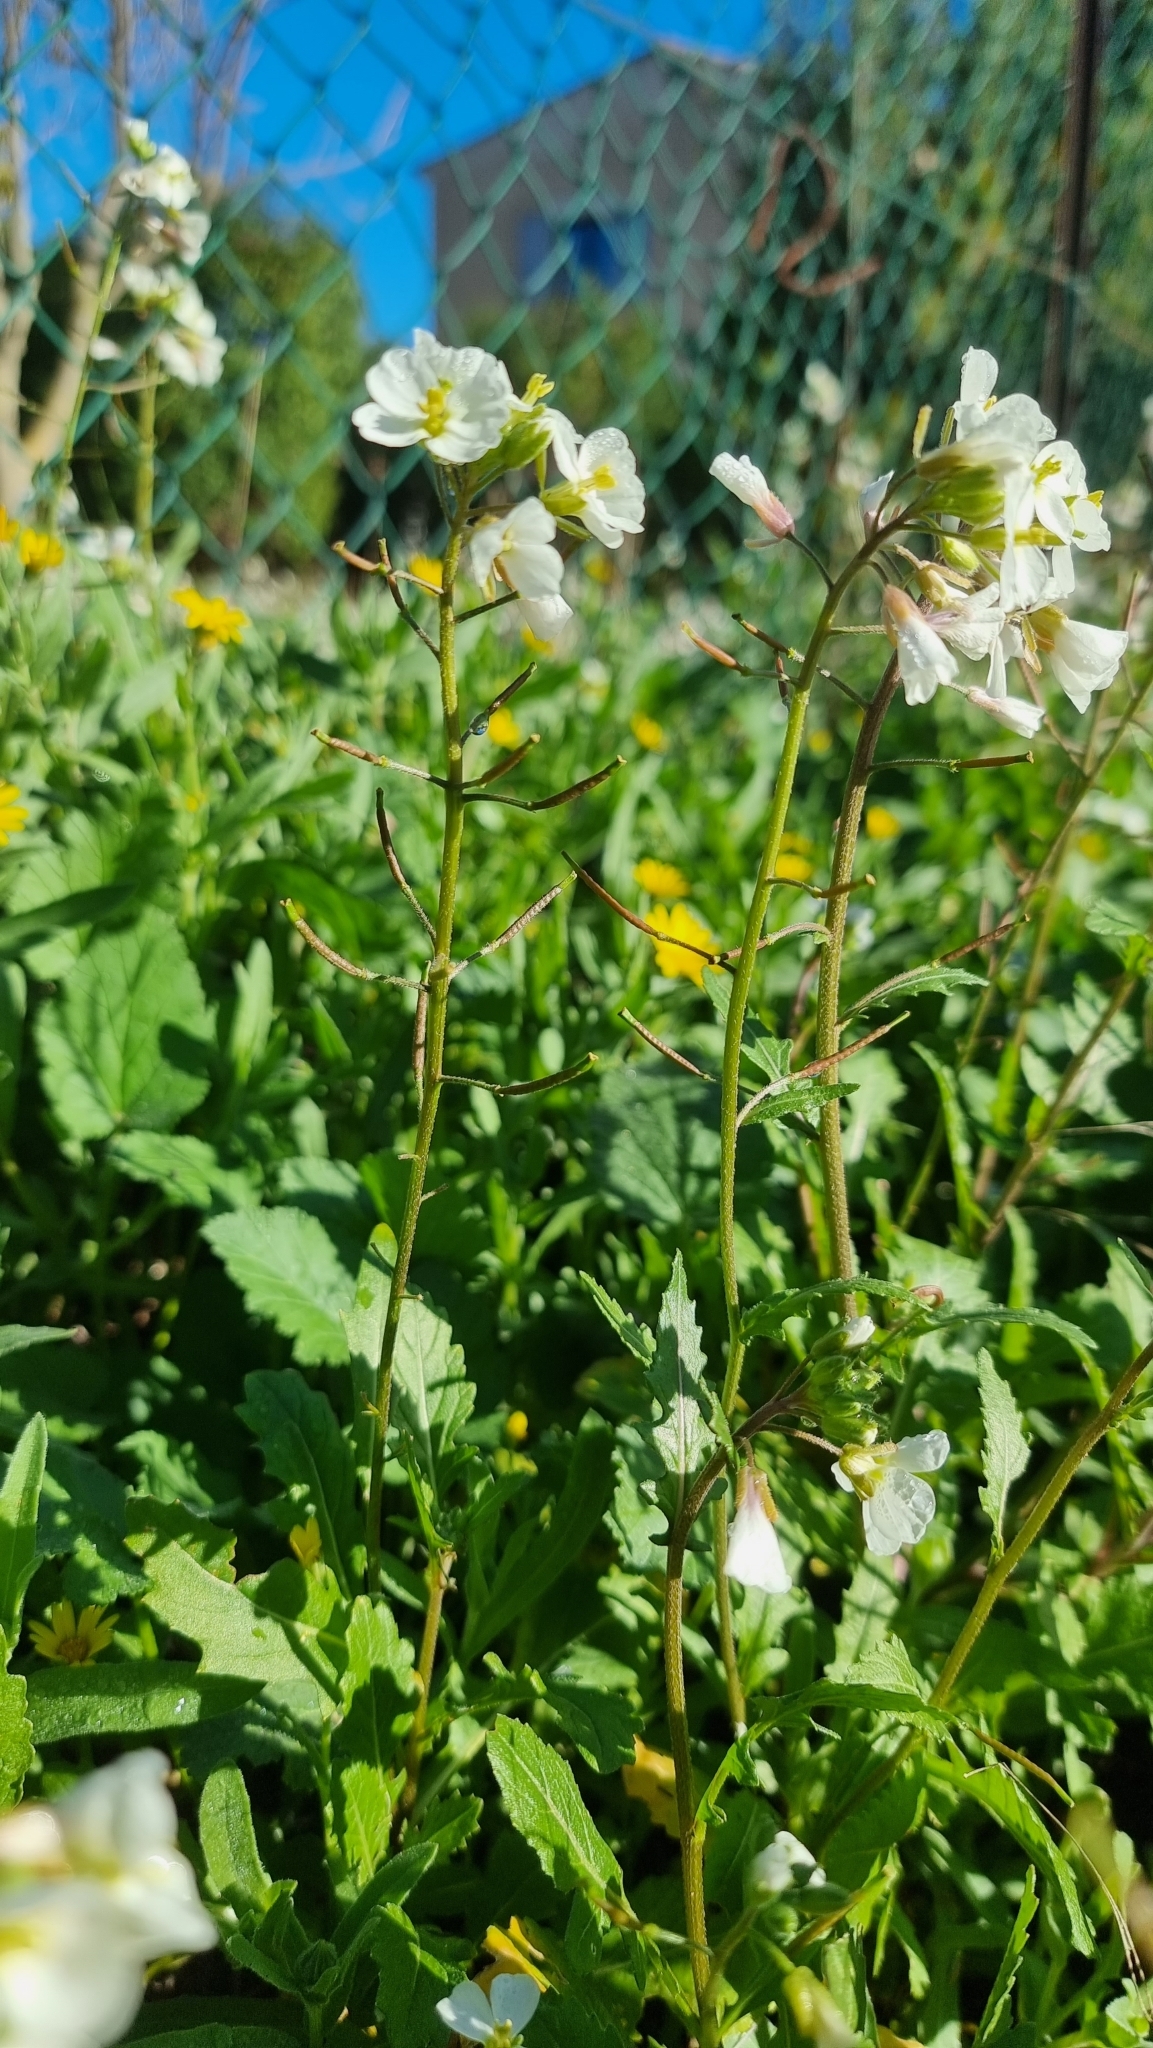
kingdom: Plantae
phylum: Tracheophyta
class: Magnoliopsida
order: Brassicales
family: Brassicaceae
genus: Diplotaxis
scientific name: Diplotaxis erucoides
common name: White rocket
